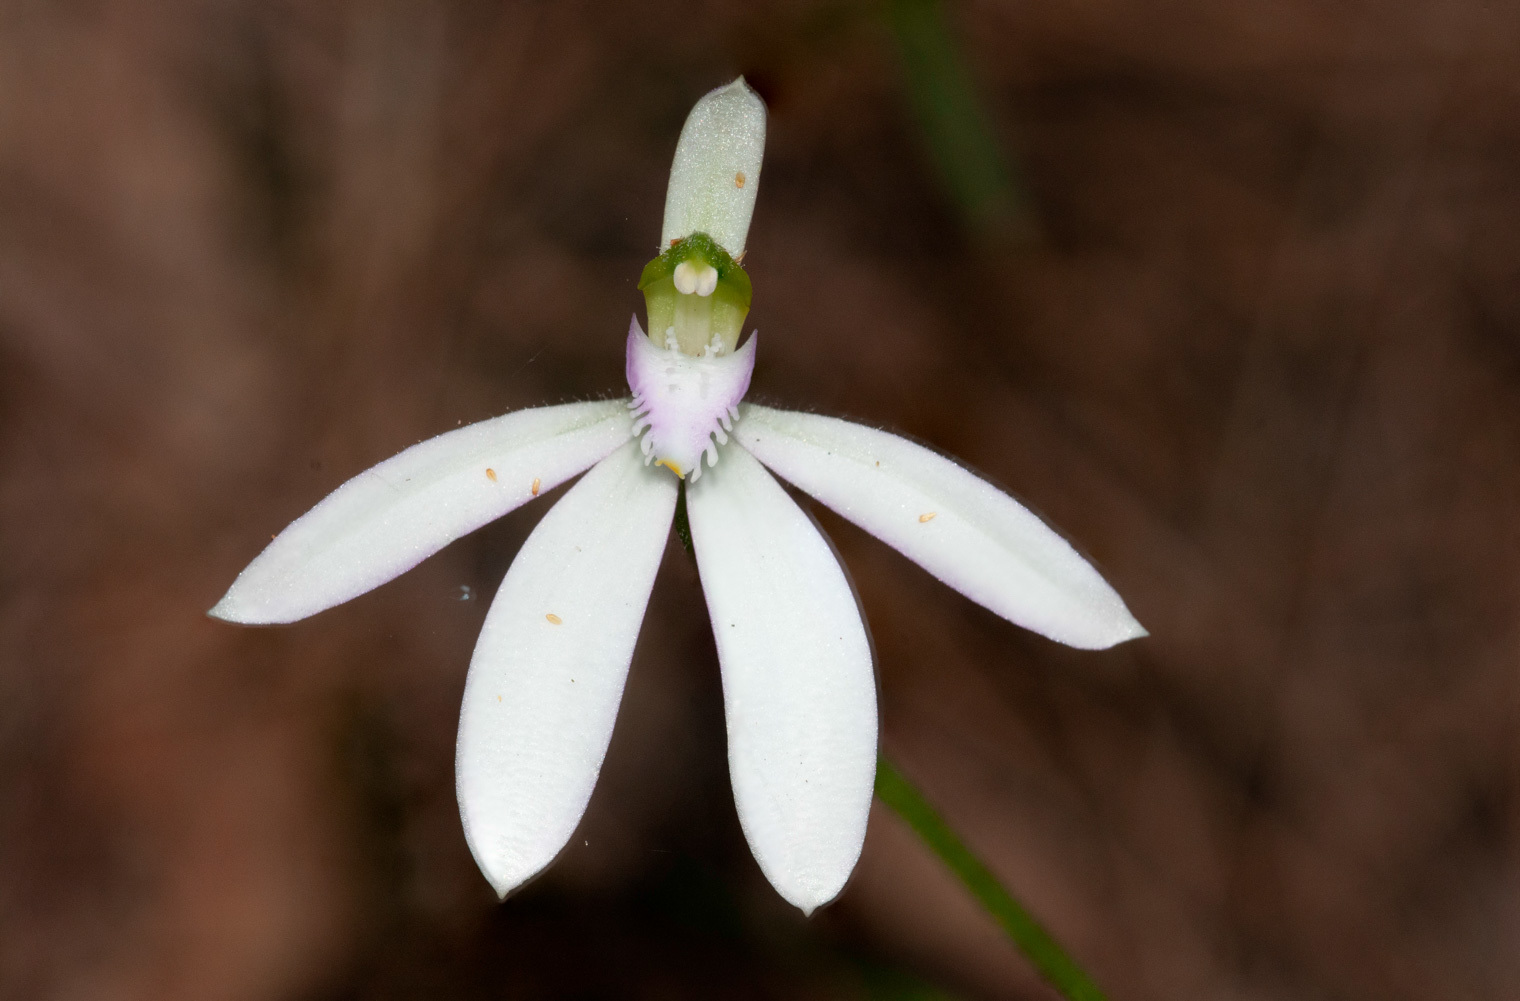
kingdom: Plantae
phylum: Tracheophyta
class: Liliopsida
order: Asparagales
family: Orchidaceae
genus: Caladenia
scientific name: Caladenia picta
